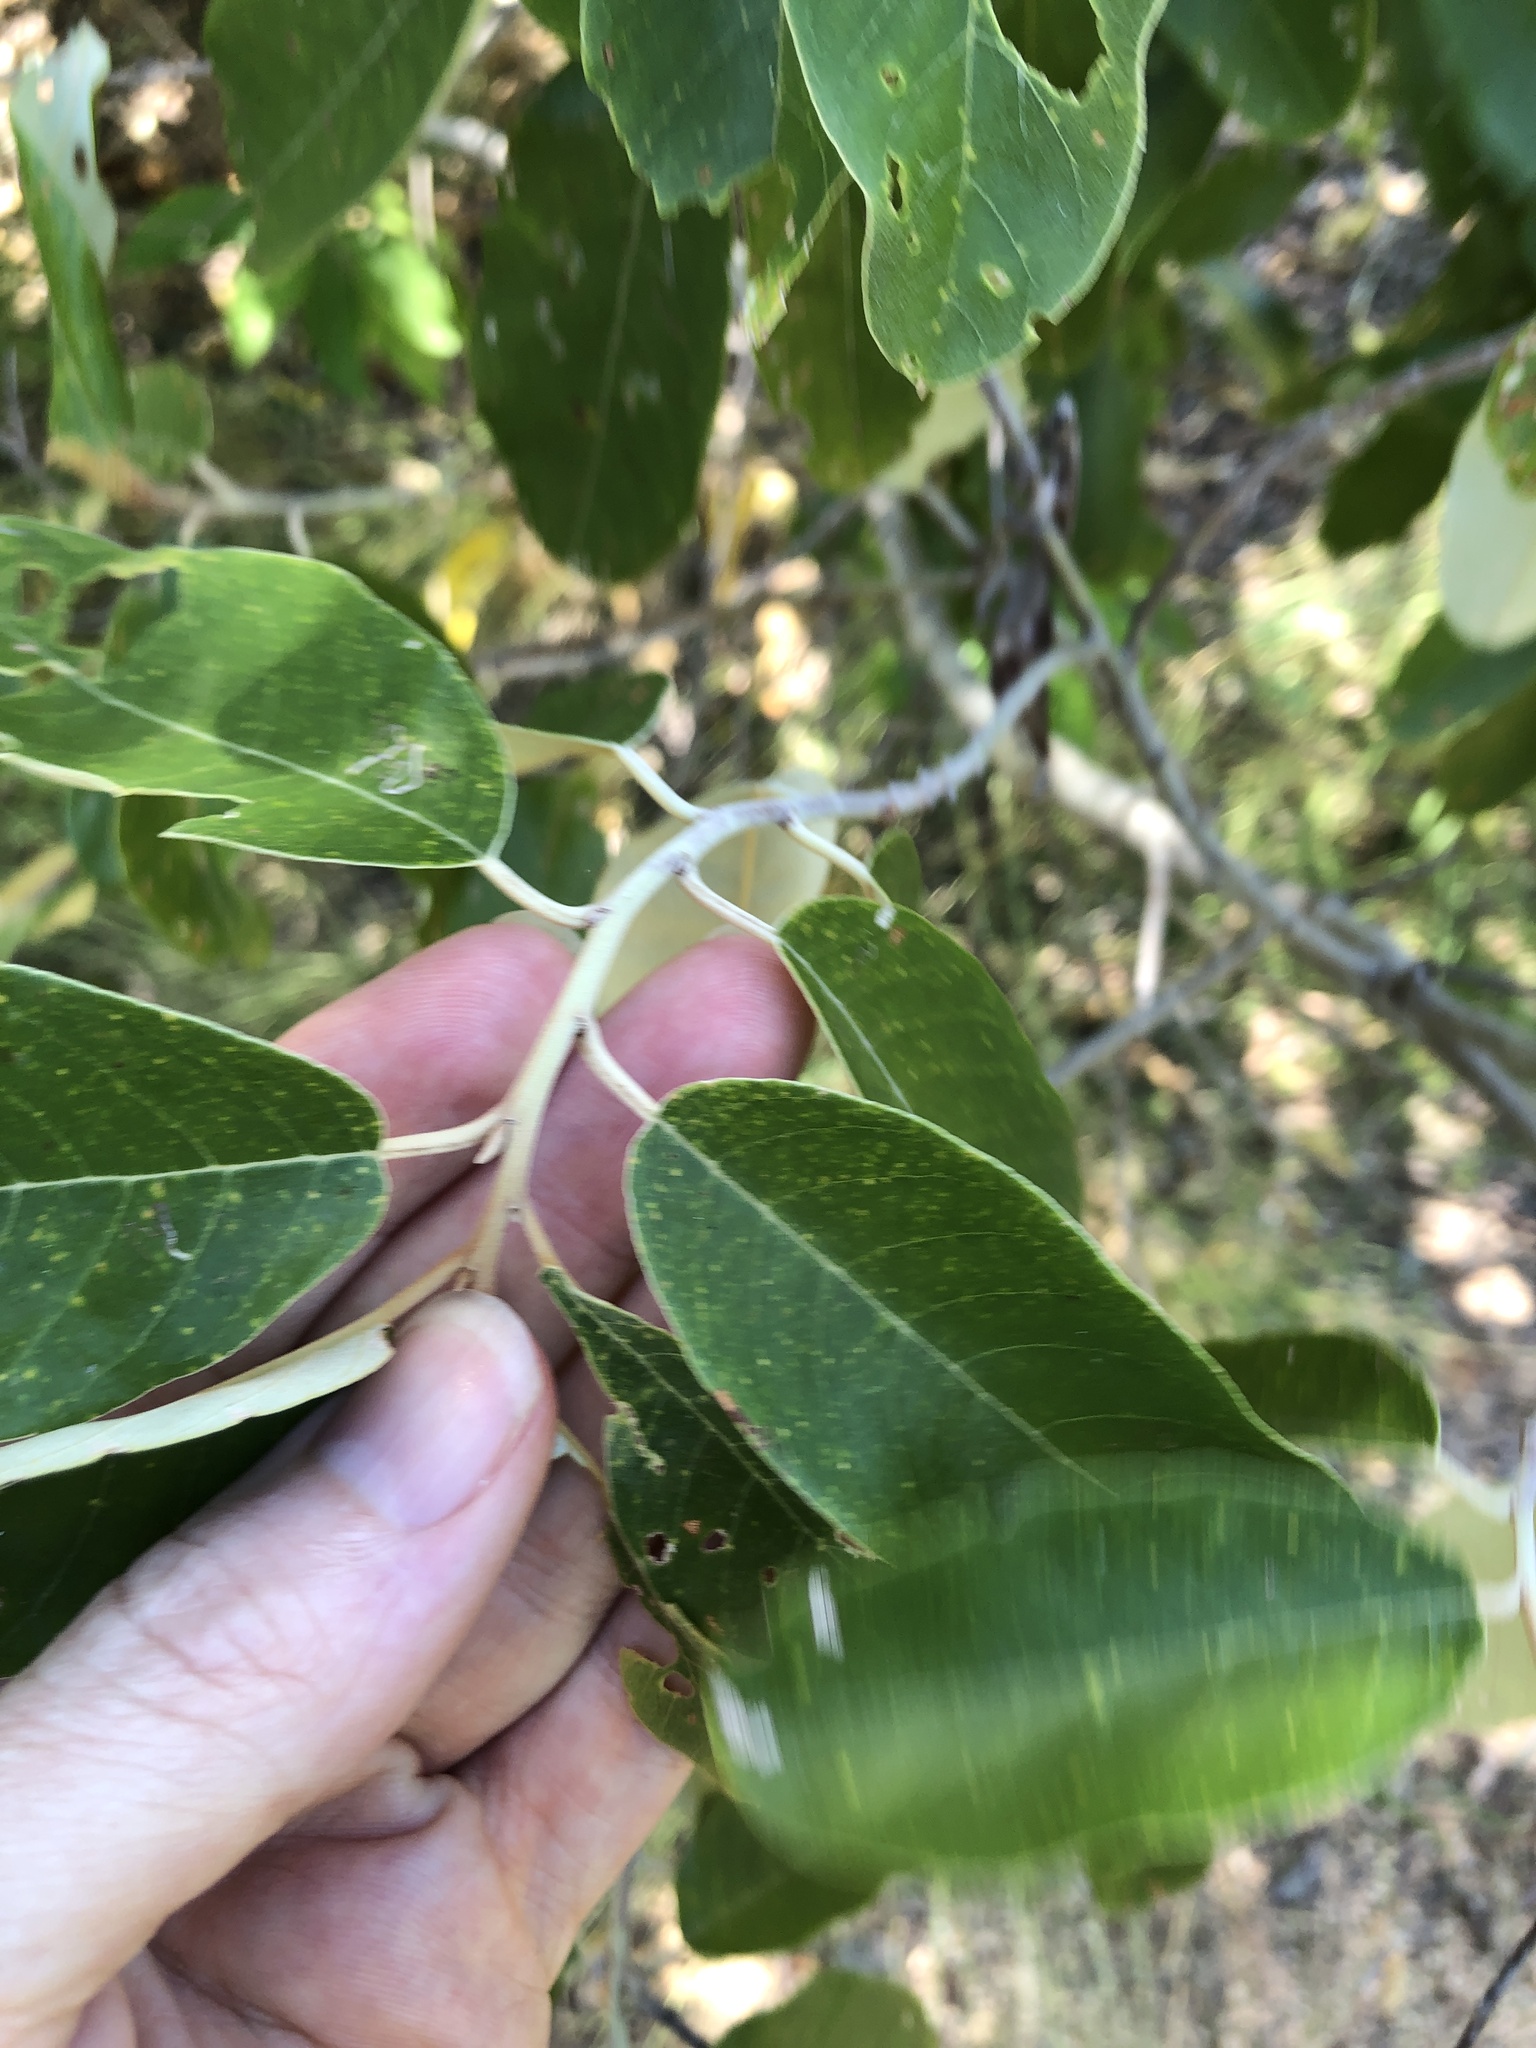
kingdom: Plantae
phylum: Tracheophyta
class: Magnoliopsida
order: Rosales
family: Rhamnaceae
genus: Alphitonia
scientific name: Alphitonia excelsa
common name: Red ash
